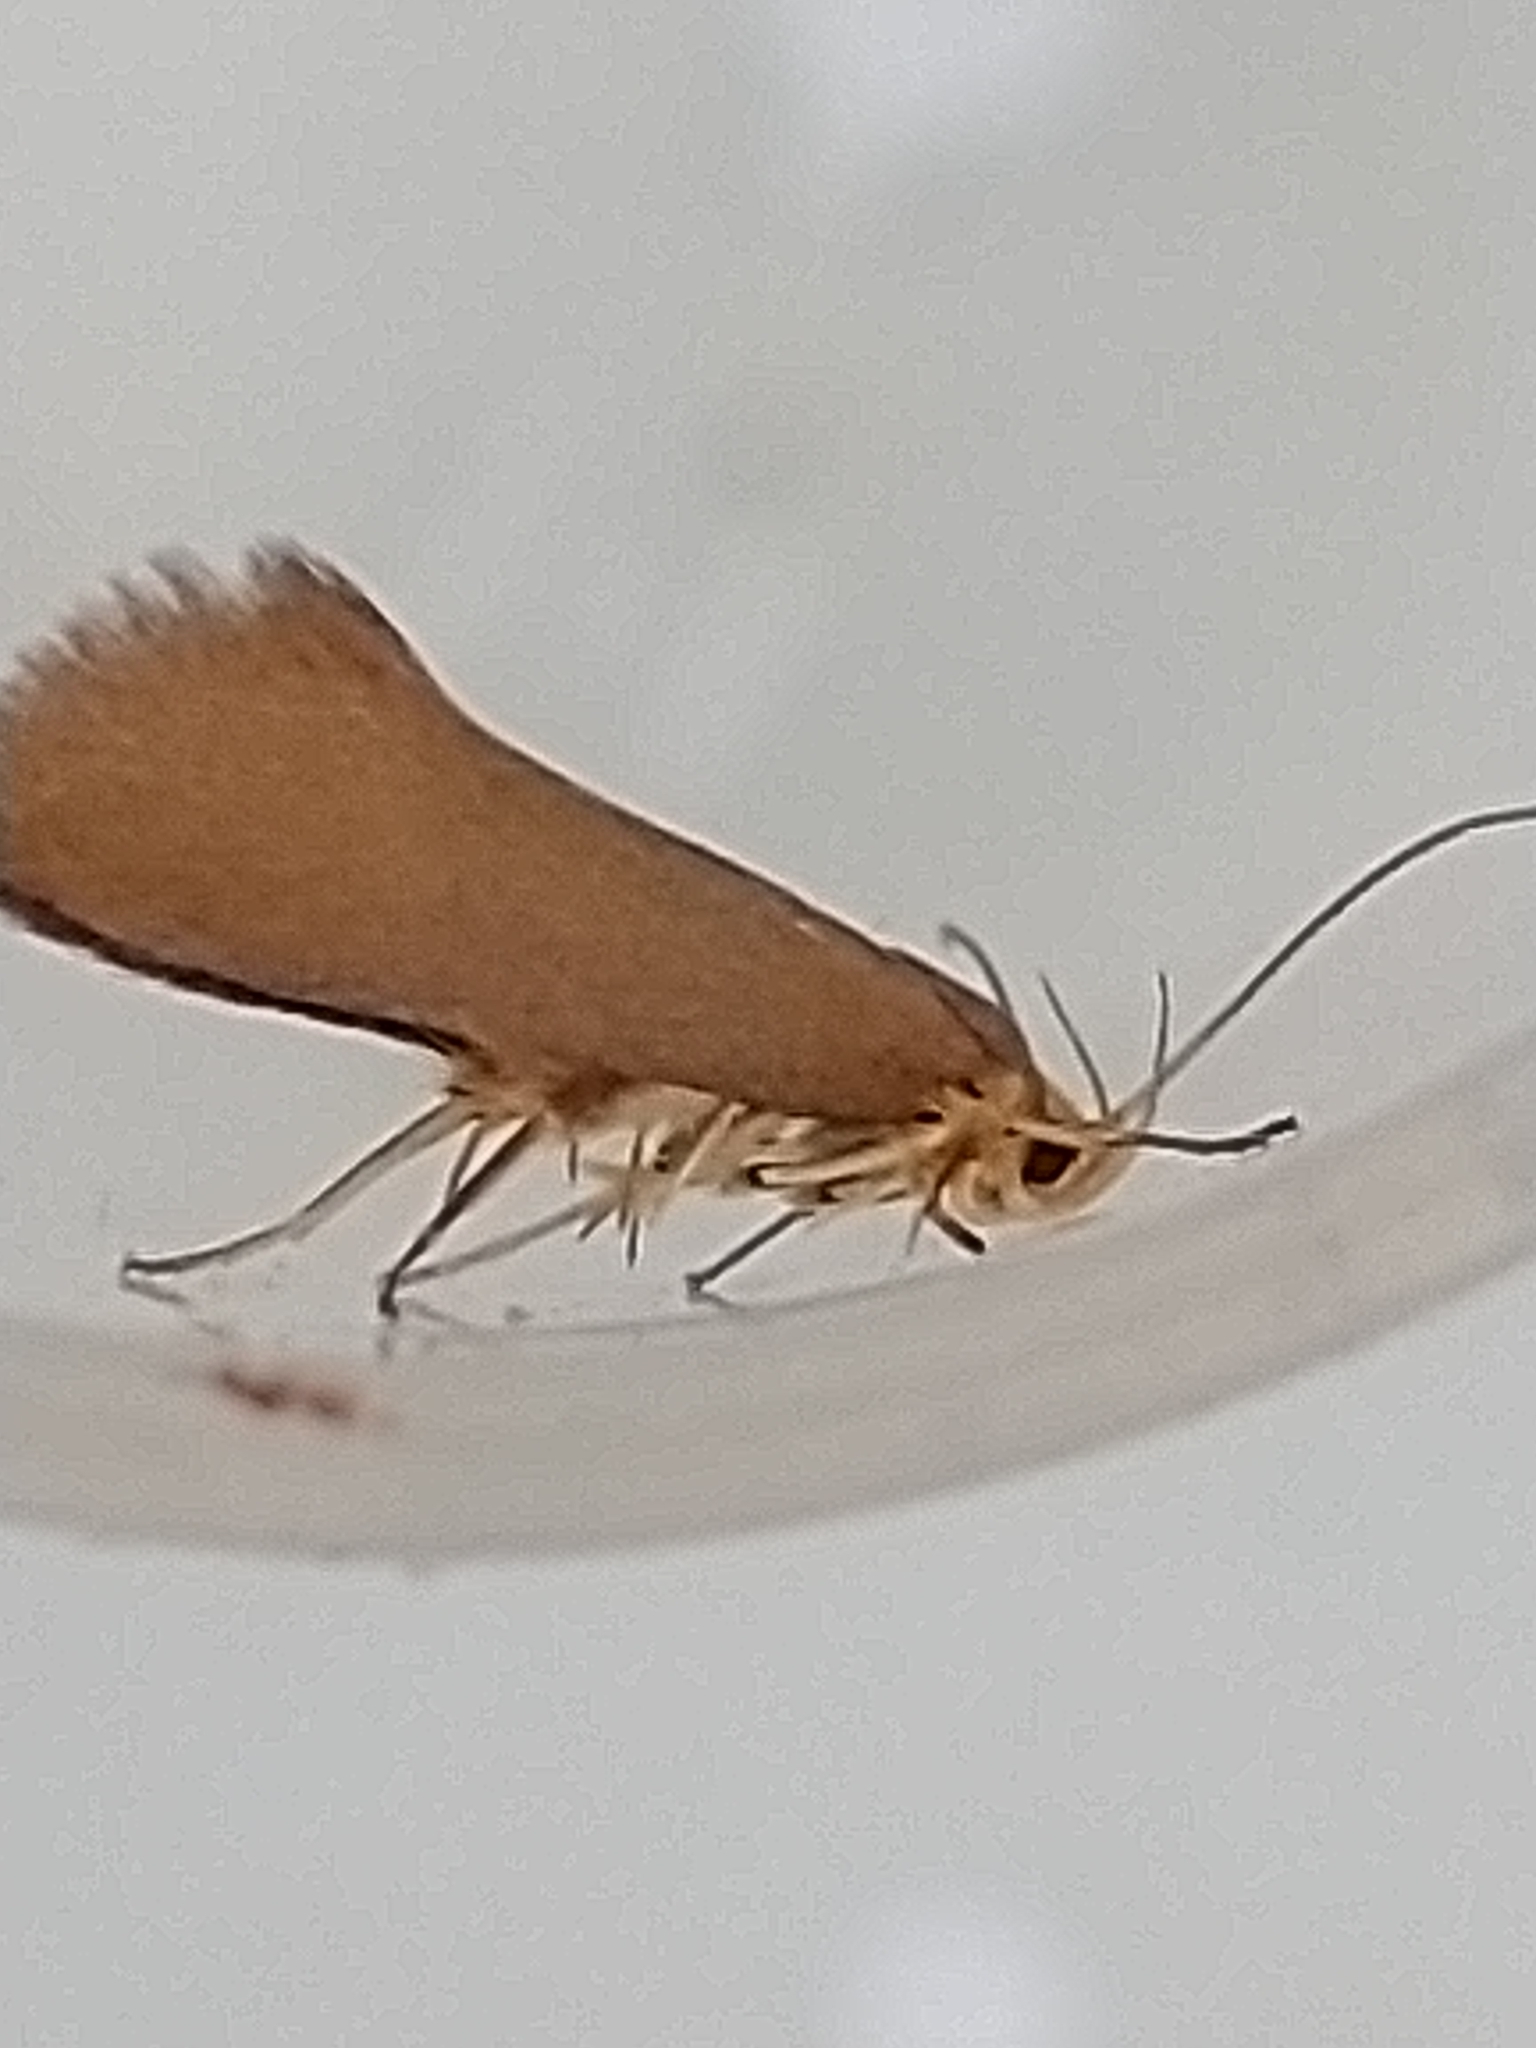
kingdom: Animalia
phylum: Arthropoda
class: Insecta
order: Lepidoptera
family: Oecophoridae
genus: Borkhausenia
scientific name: Borkhausenia Crassa unitella
